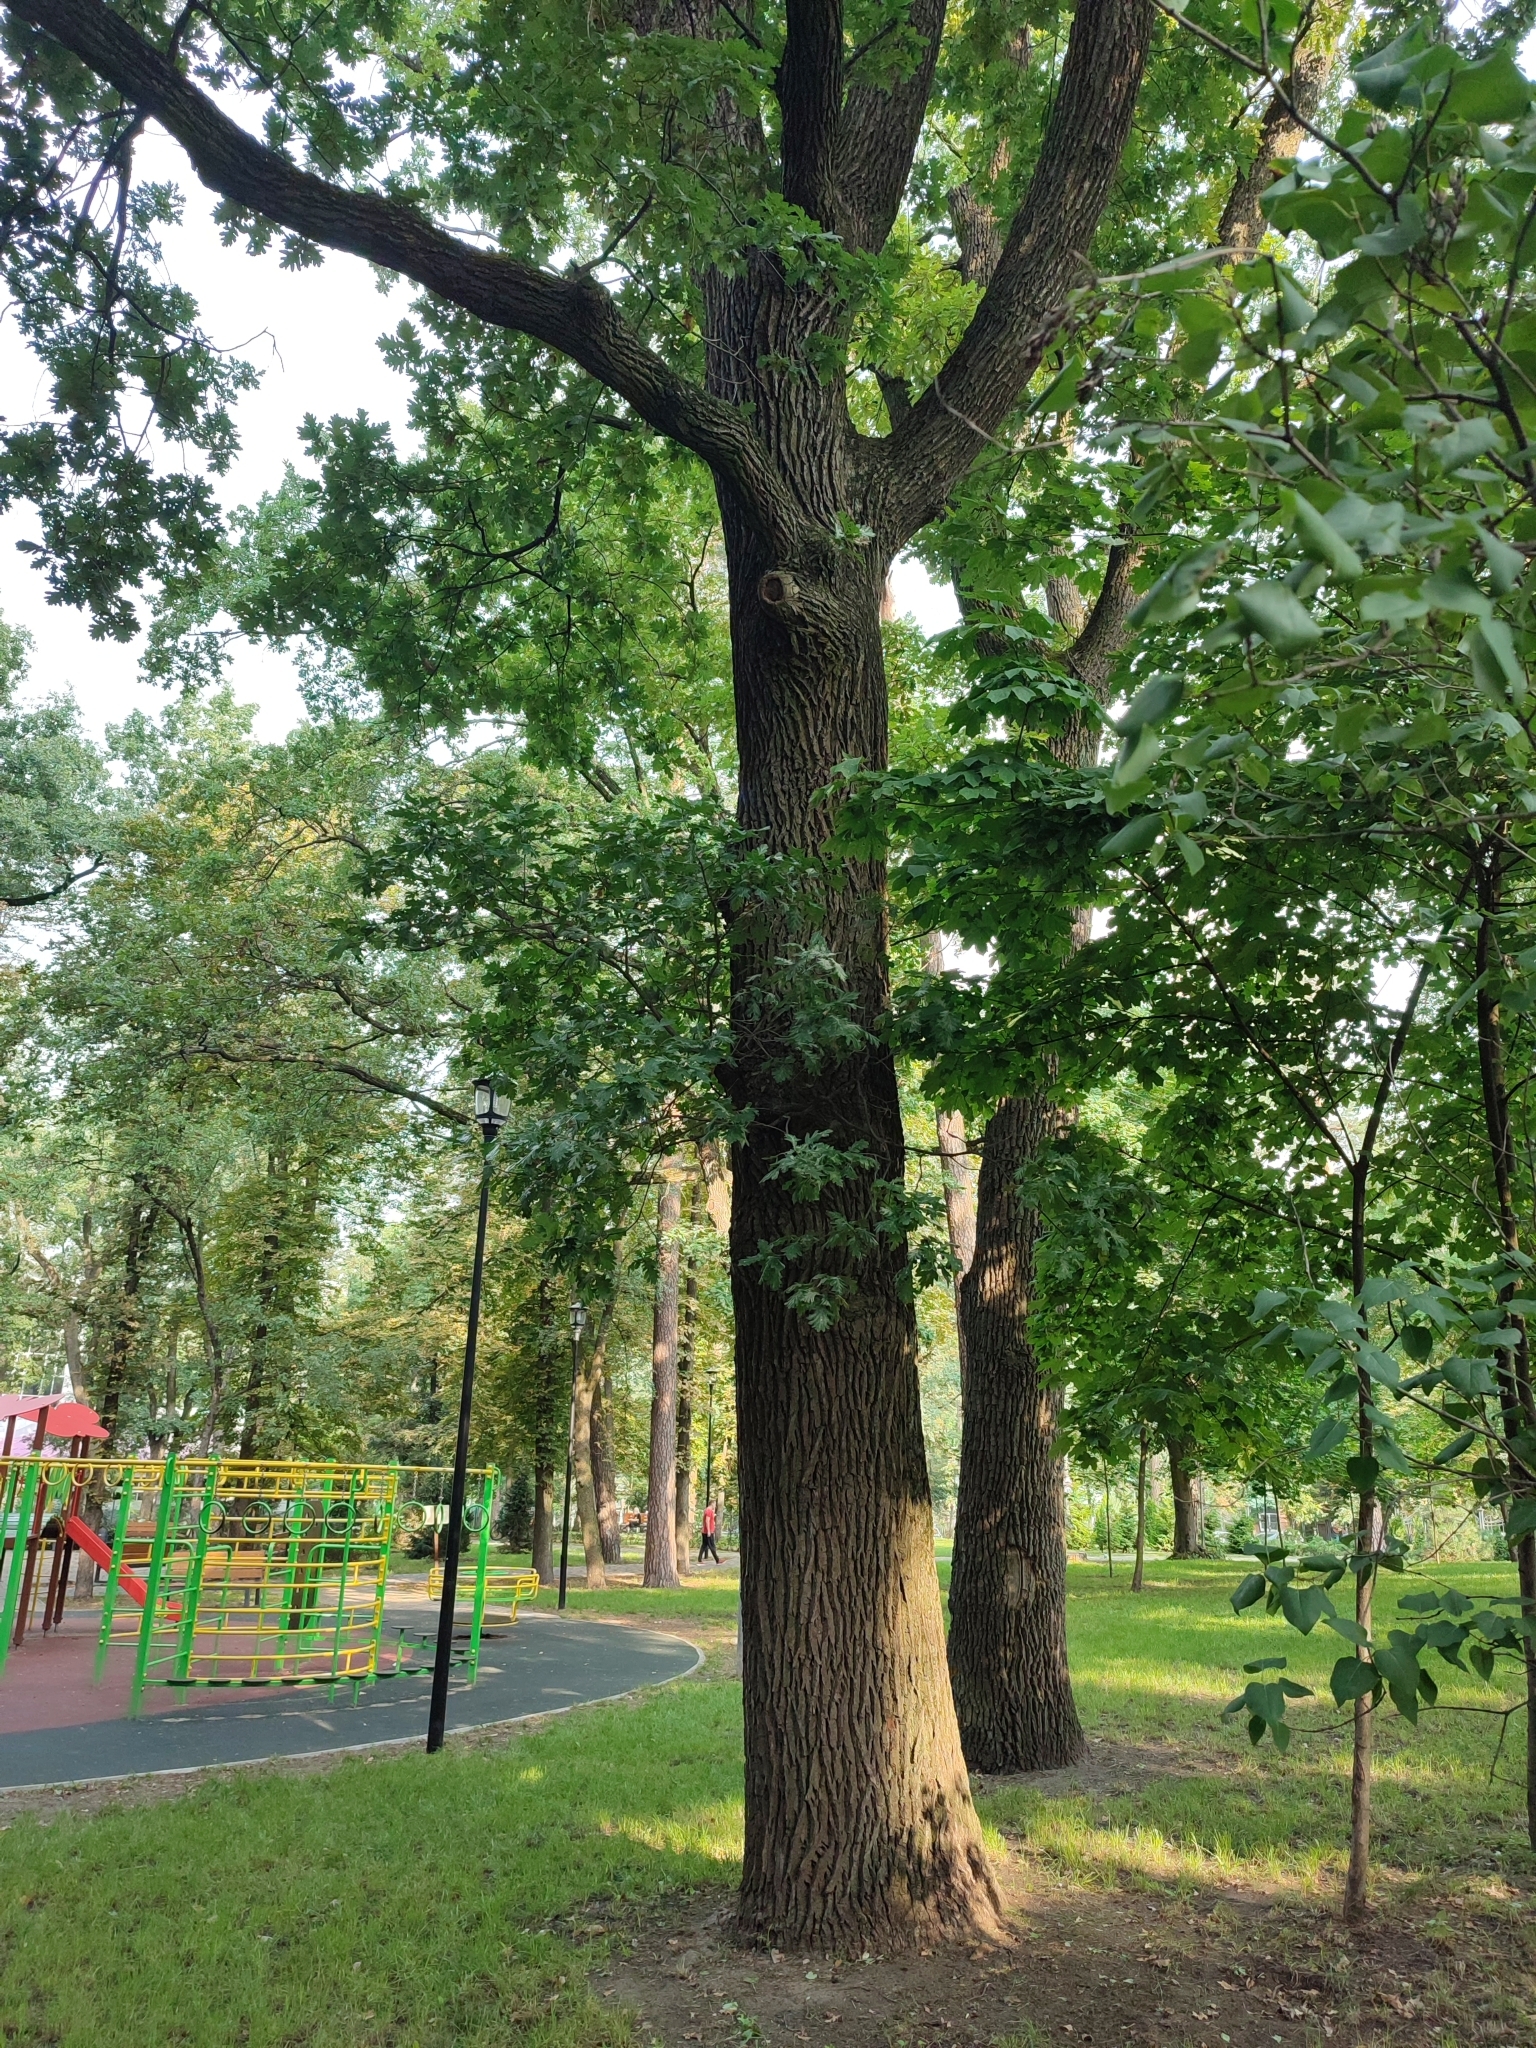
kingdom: Plantae
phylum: Tracheophyta
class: Magnoliopsida
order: Fagales
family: Fagaceae
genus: Quercus
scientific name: Quercus robur
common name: Pedunculate oak
